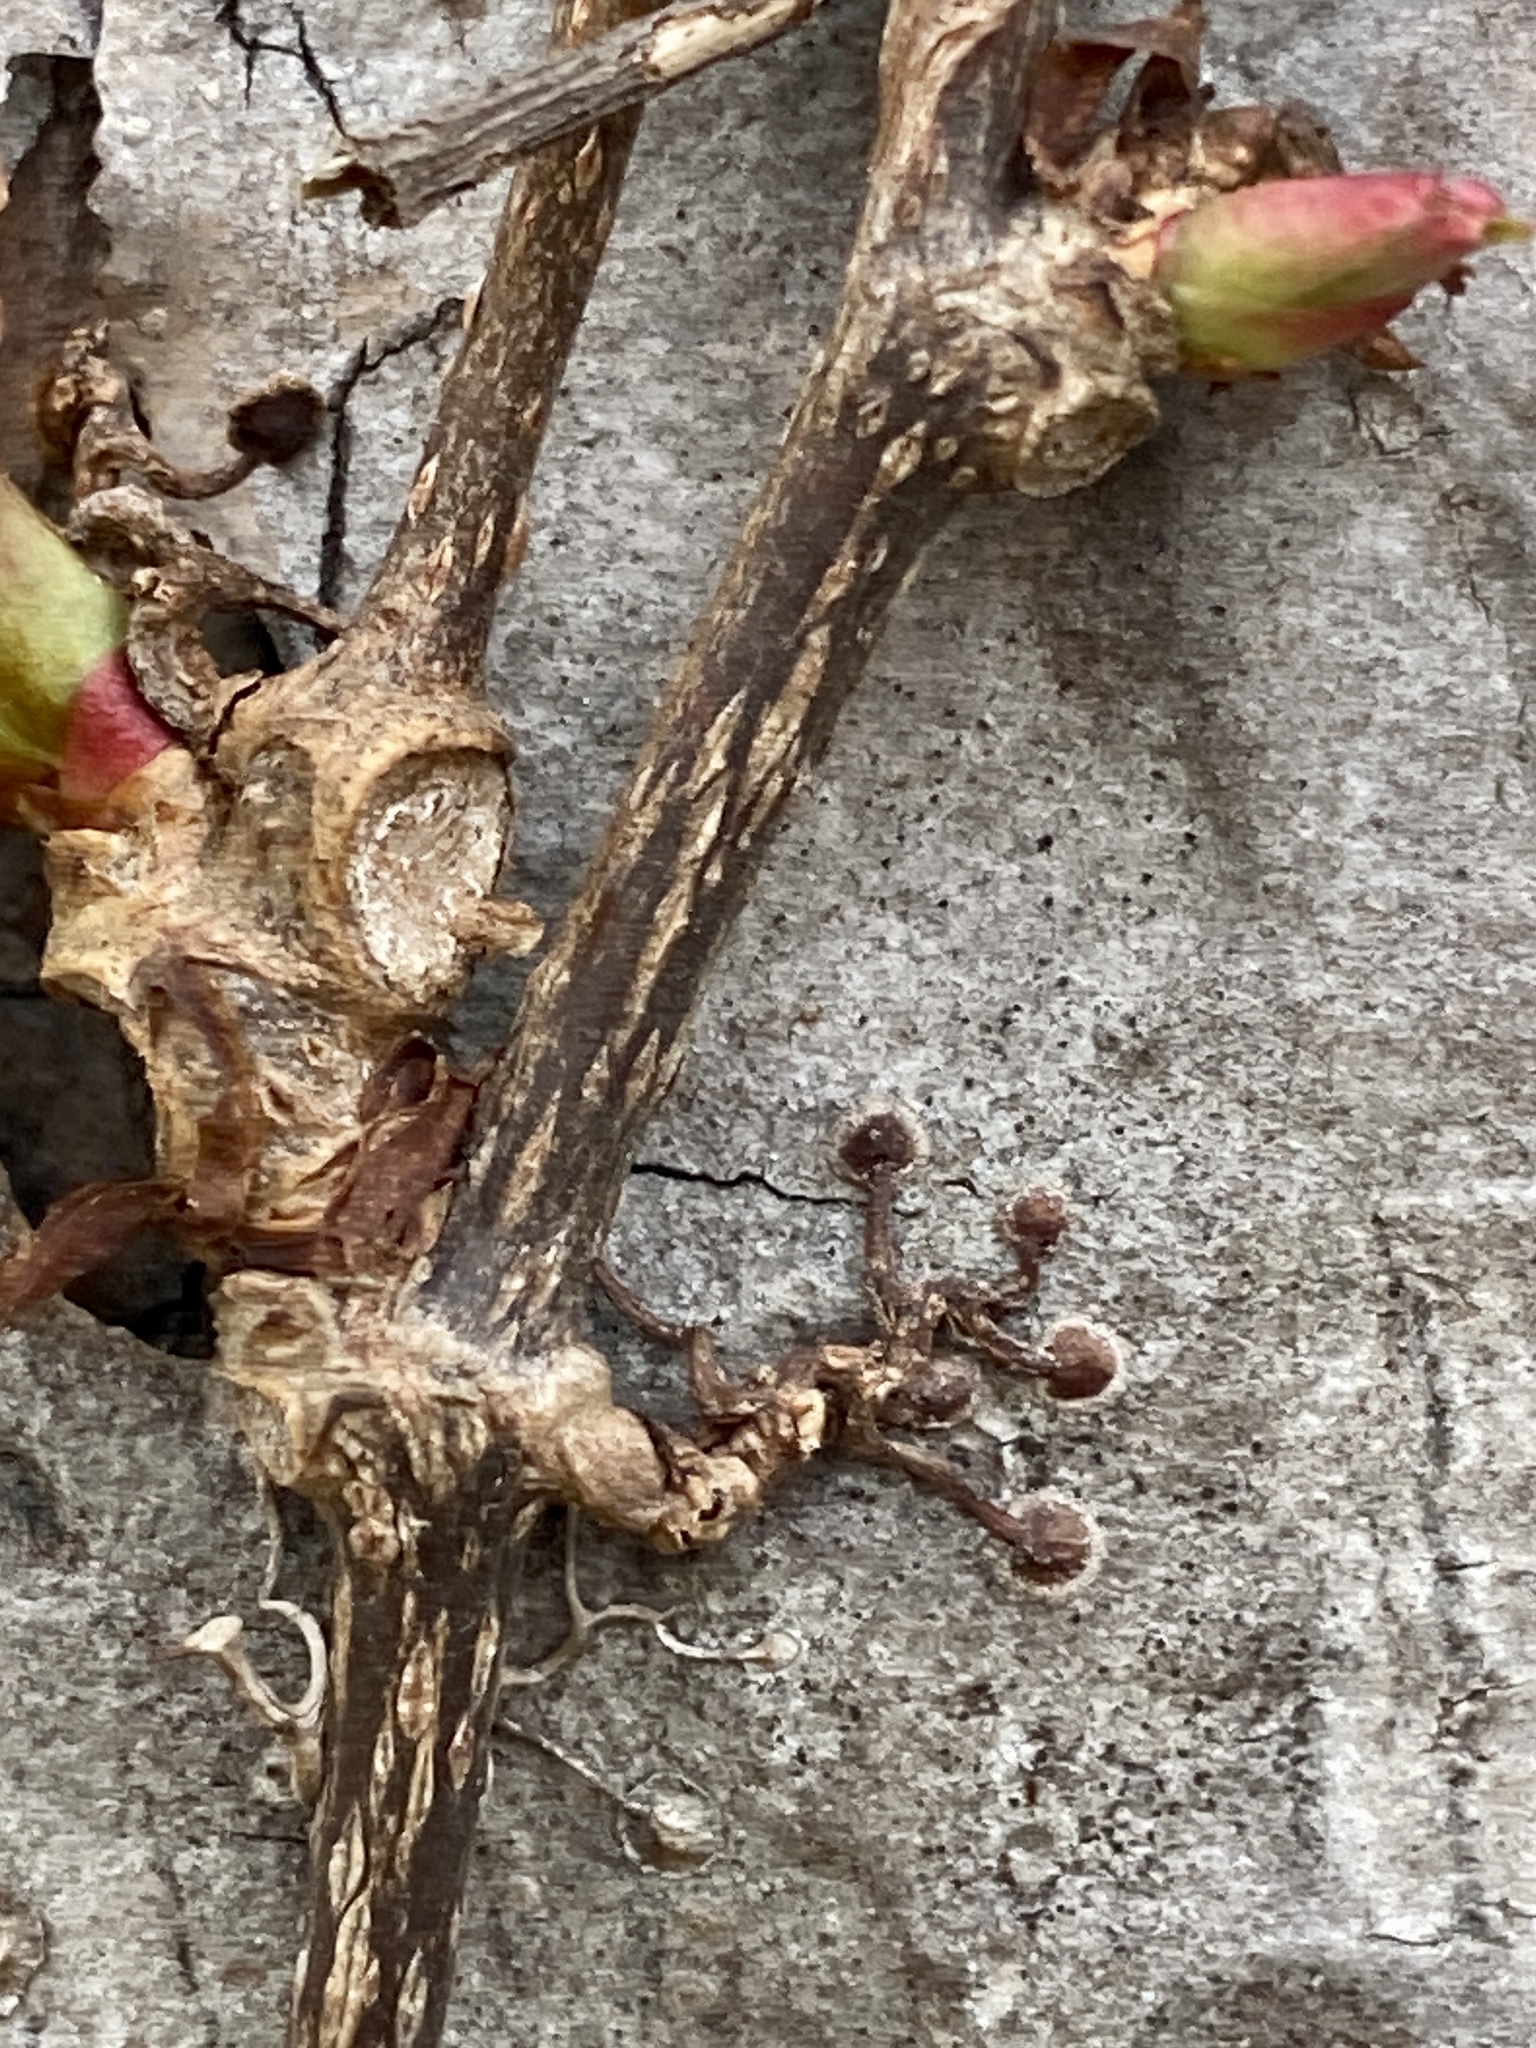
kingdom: Plantae
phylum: Tracheophyta
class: Magnoliopsida
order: Vitales
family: Vitaceae
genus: Parthenocissus
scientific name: Parthenocissus tricuspidata
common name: Boston ivy
